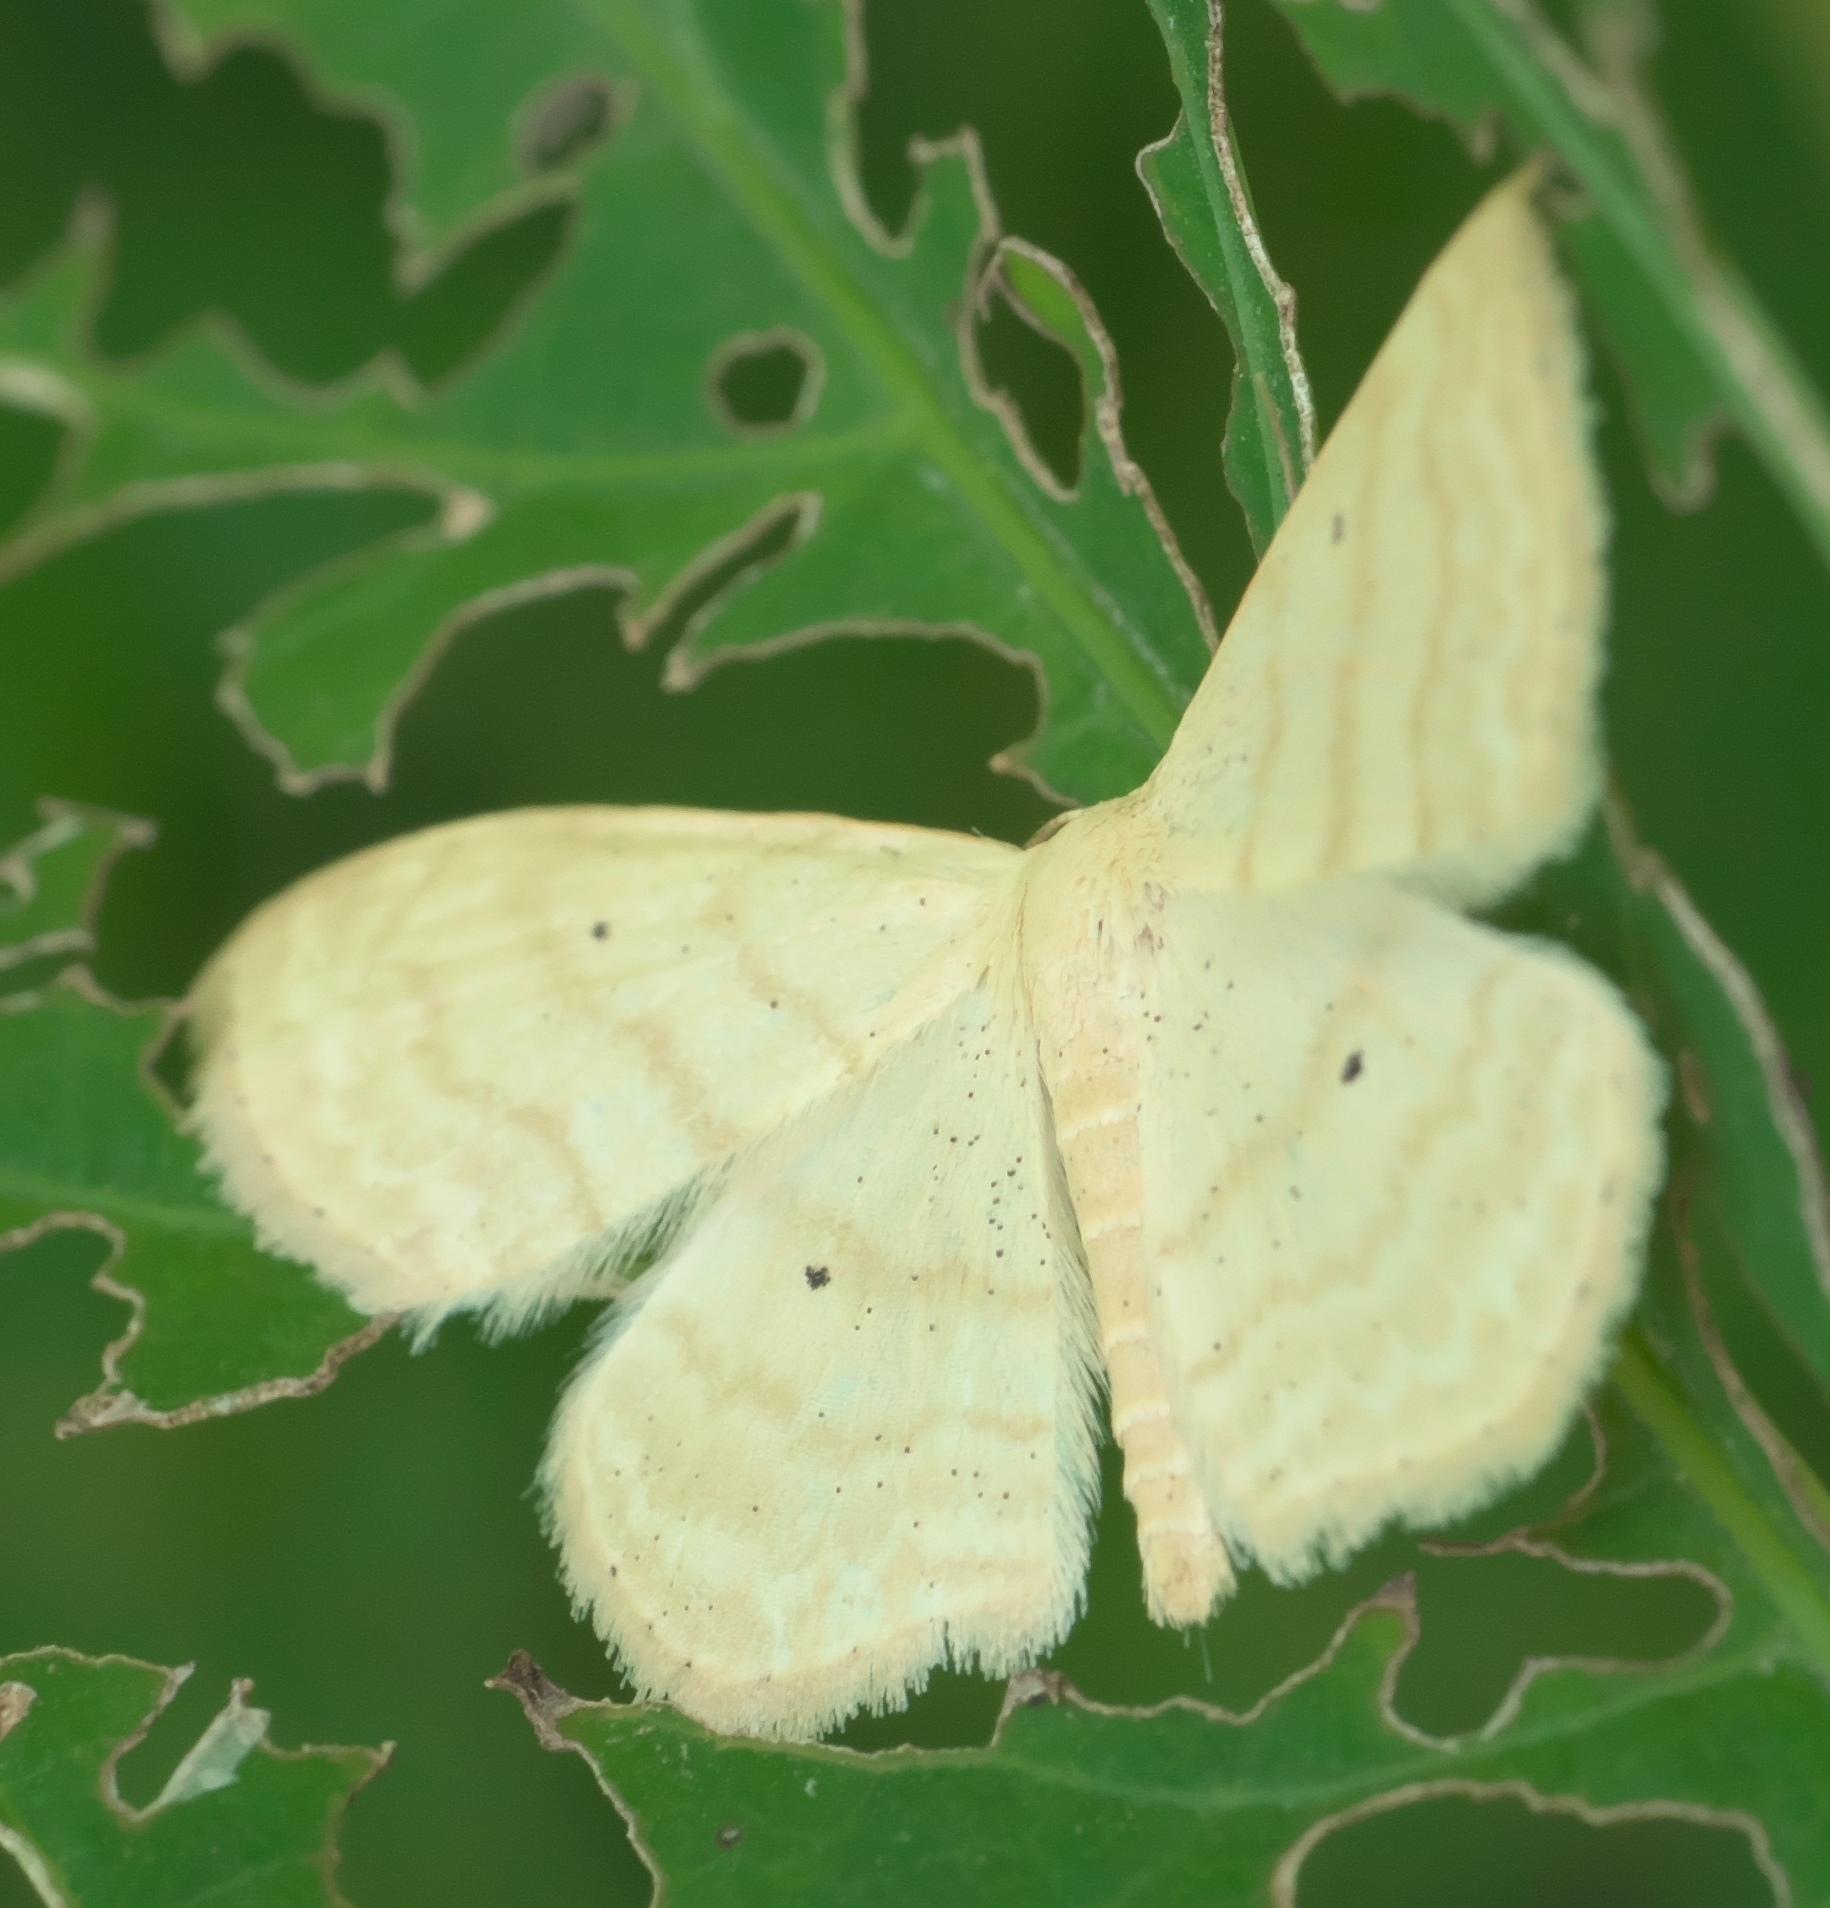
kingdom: Animalia
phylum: Arthropoda
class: Insecta
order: Lepidoptera
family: Geometridae
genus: Scopula
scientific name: Scopula limboundata
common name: Large lace border
